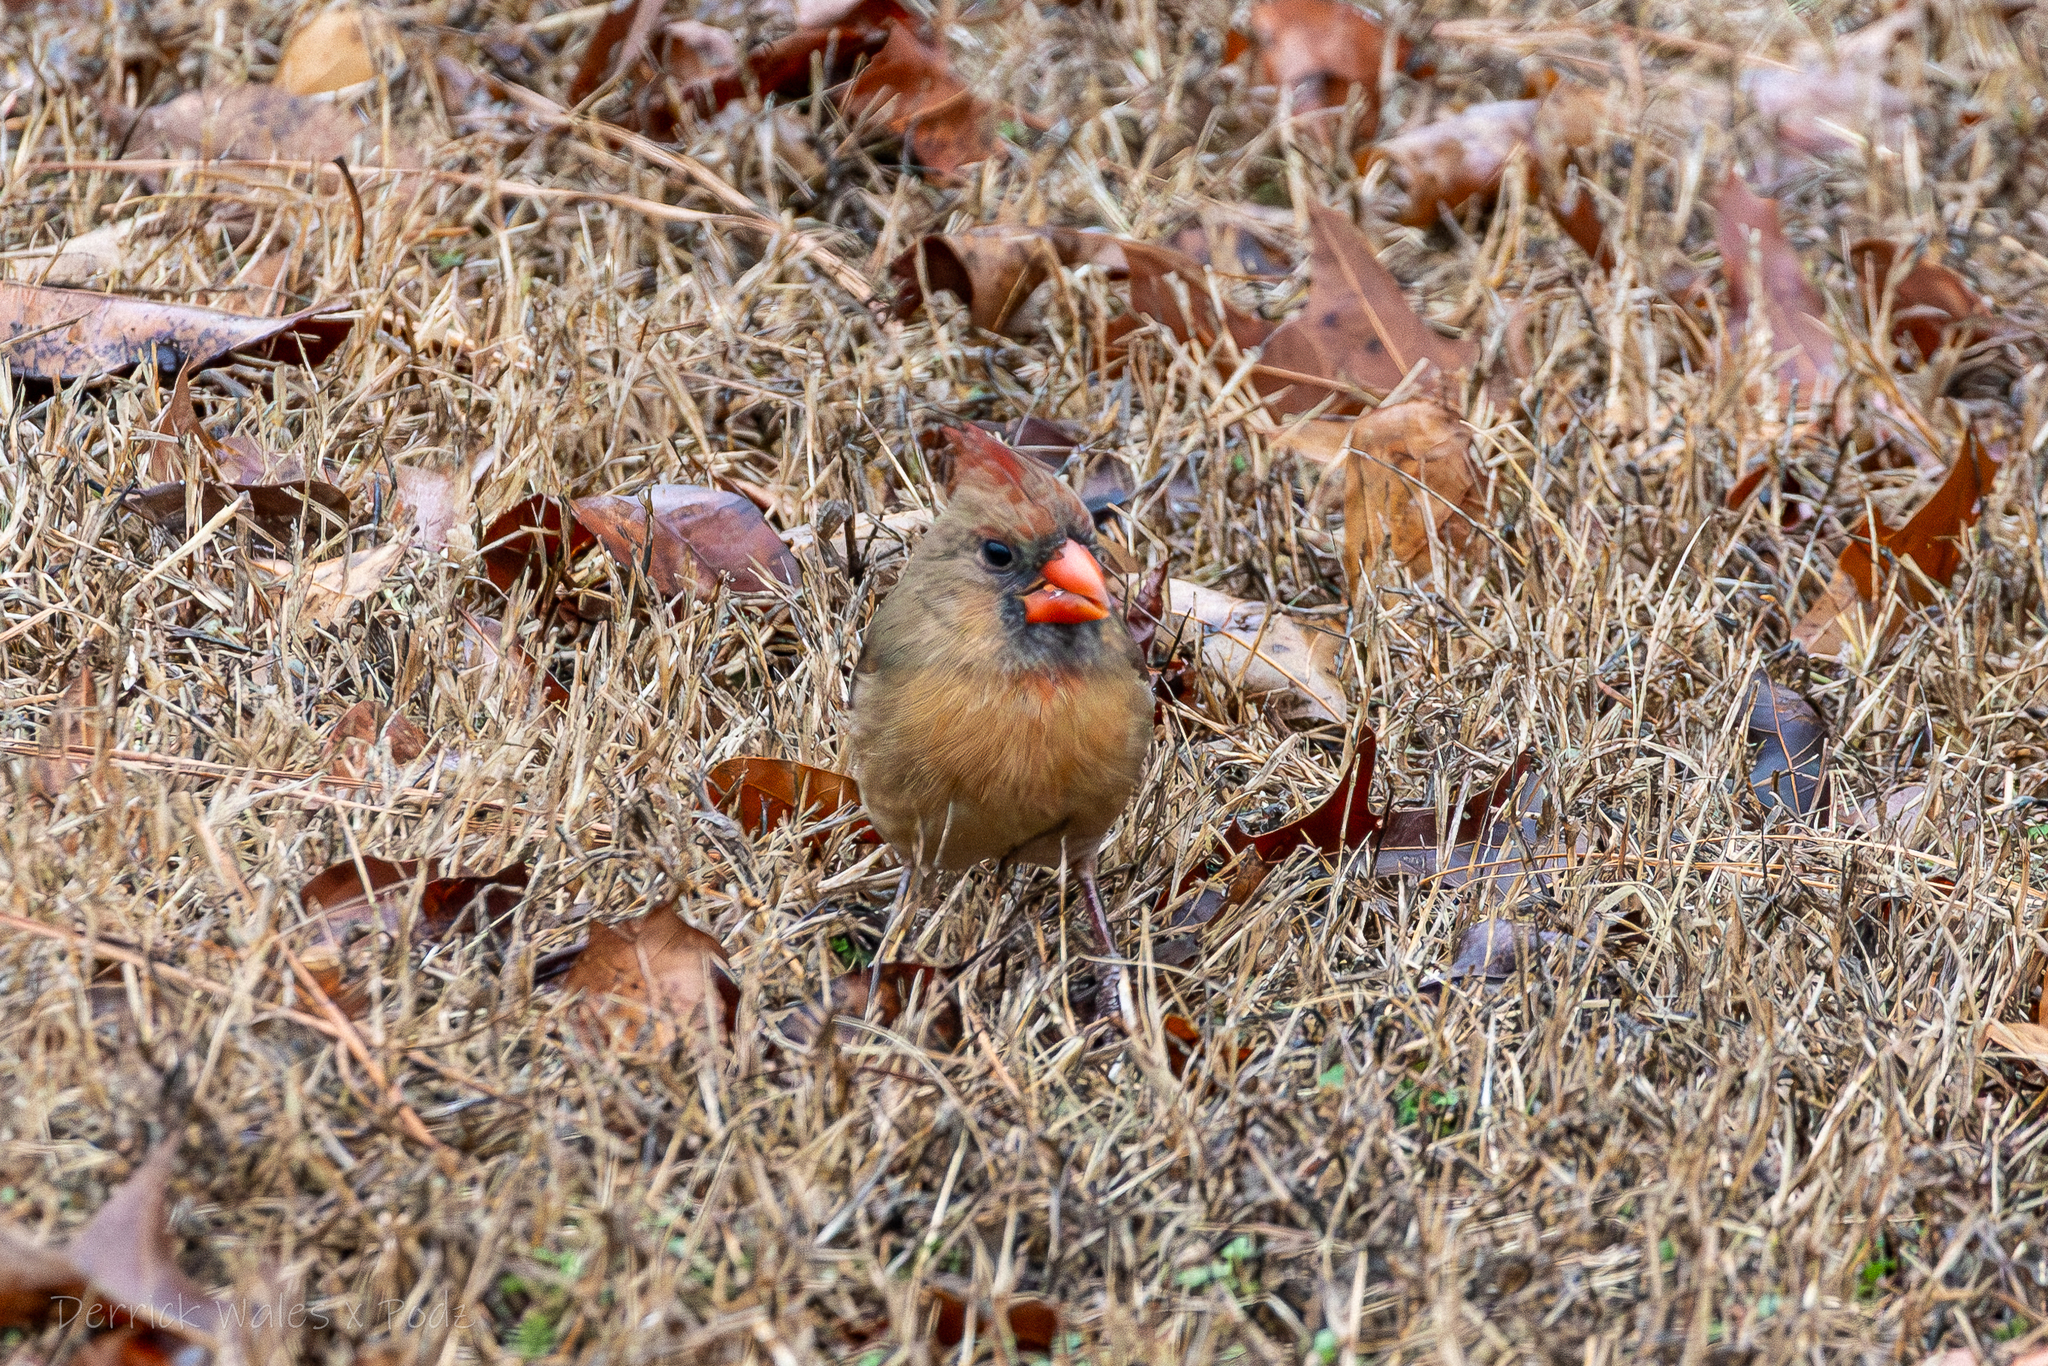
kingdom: Animalia
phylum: Chordata
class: Aves
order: Passeriformes
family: Cardinalidae
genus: Cardinalis
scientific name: Cardinalis cardinalis
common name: Northern cardinal
